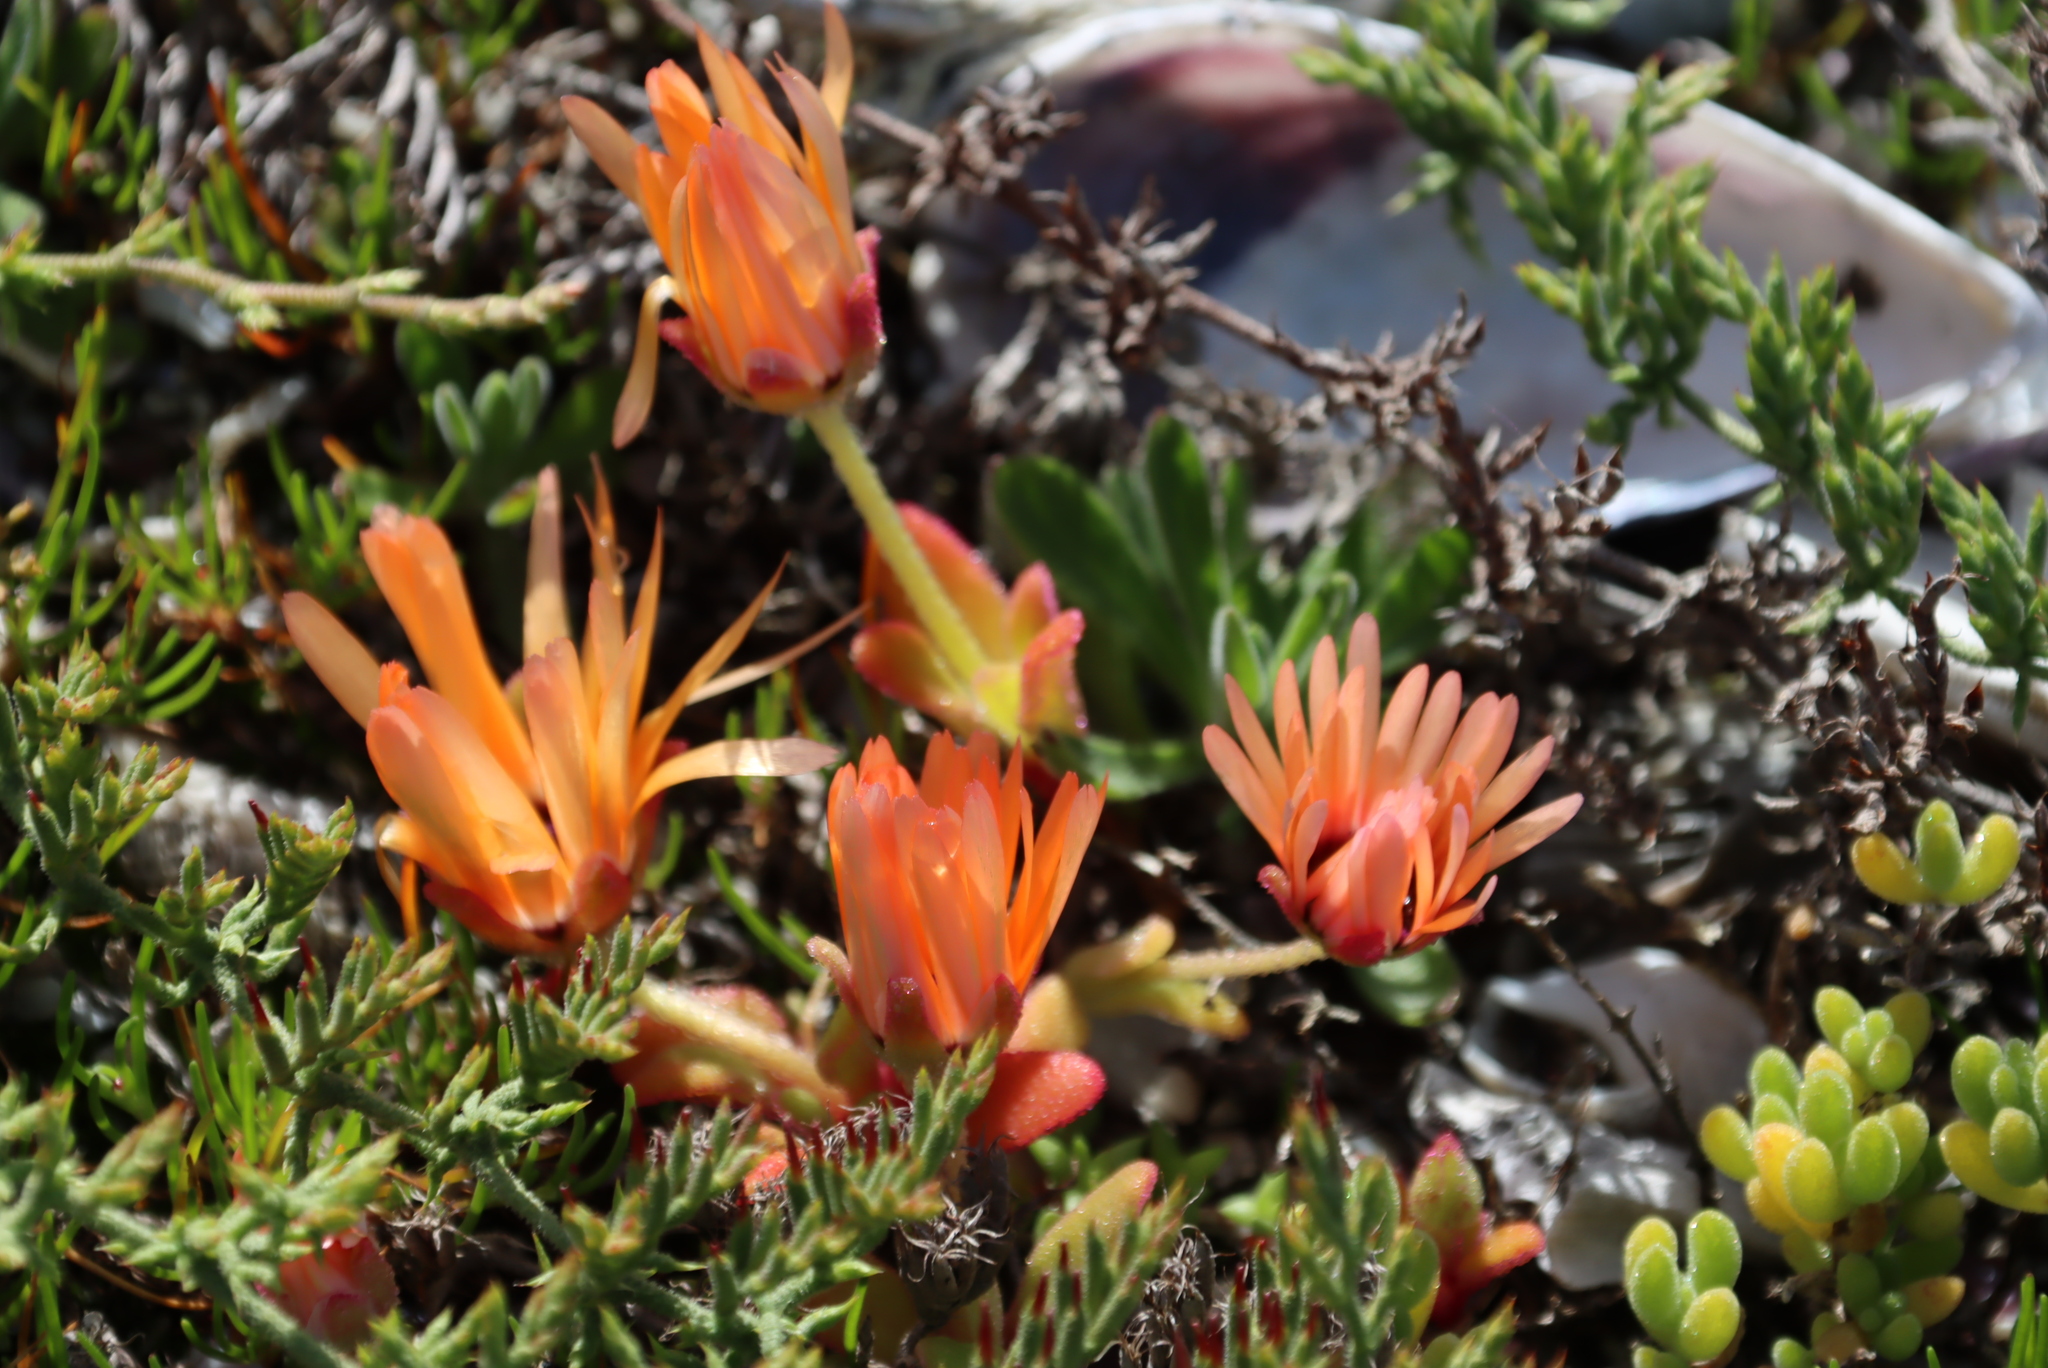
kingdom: Plantae
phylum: Tracheophyta
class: Magnoliopsida
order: Caryophyllales
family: Aizoaceae
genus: Cleretum
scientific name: Cleretum bellidiforme
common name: Livingstone daisy
